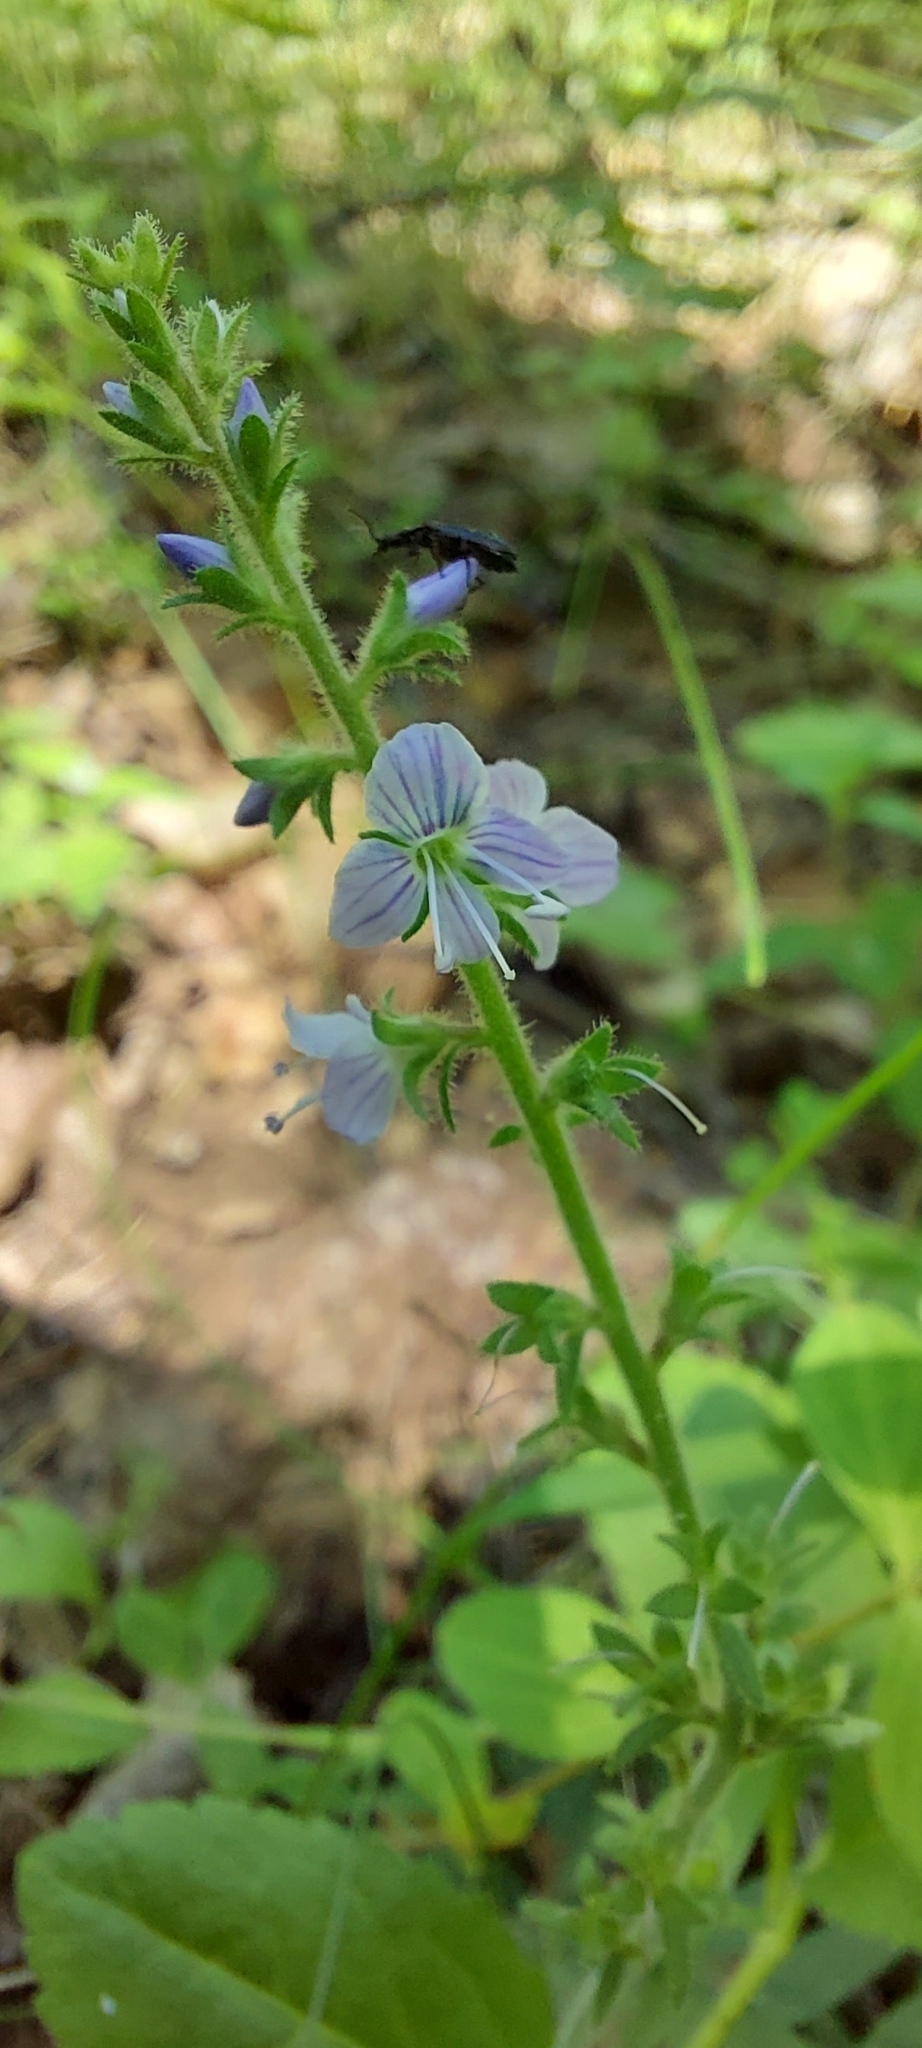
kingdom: Plantae
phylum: Tracheophyta
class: Magnoliopsida
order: Lamiales
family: Plantaginaceae
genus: Veronica
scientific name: Veronica officinalis
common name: Common speedwell
